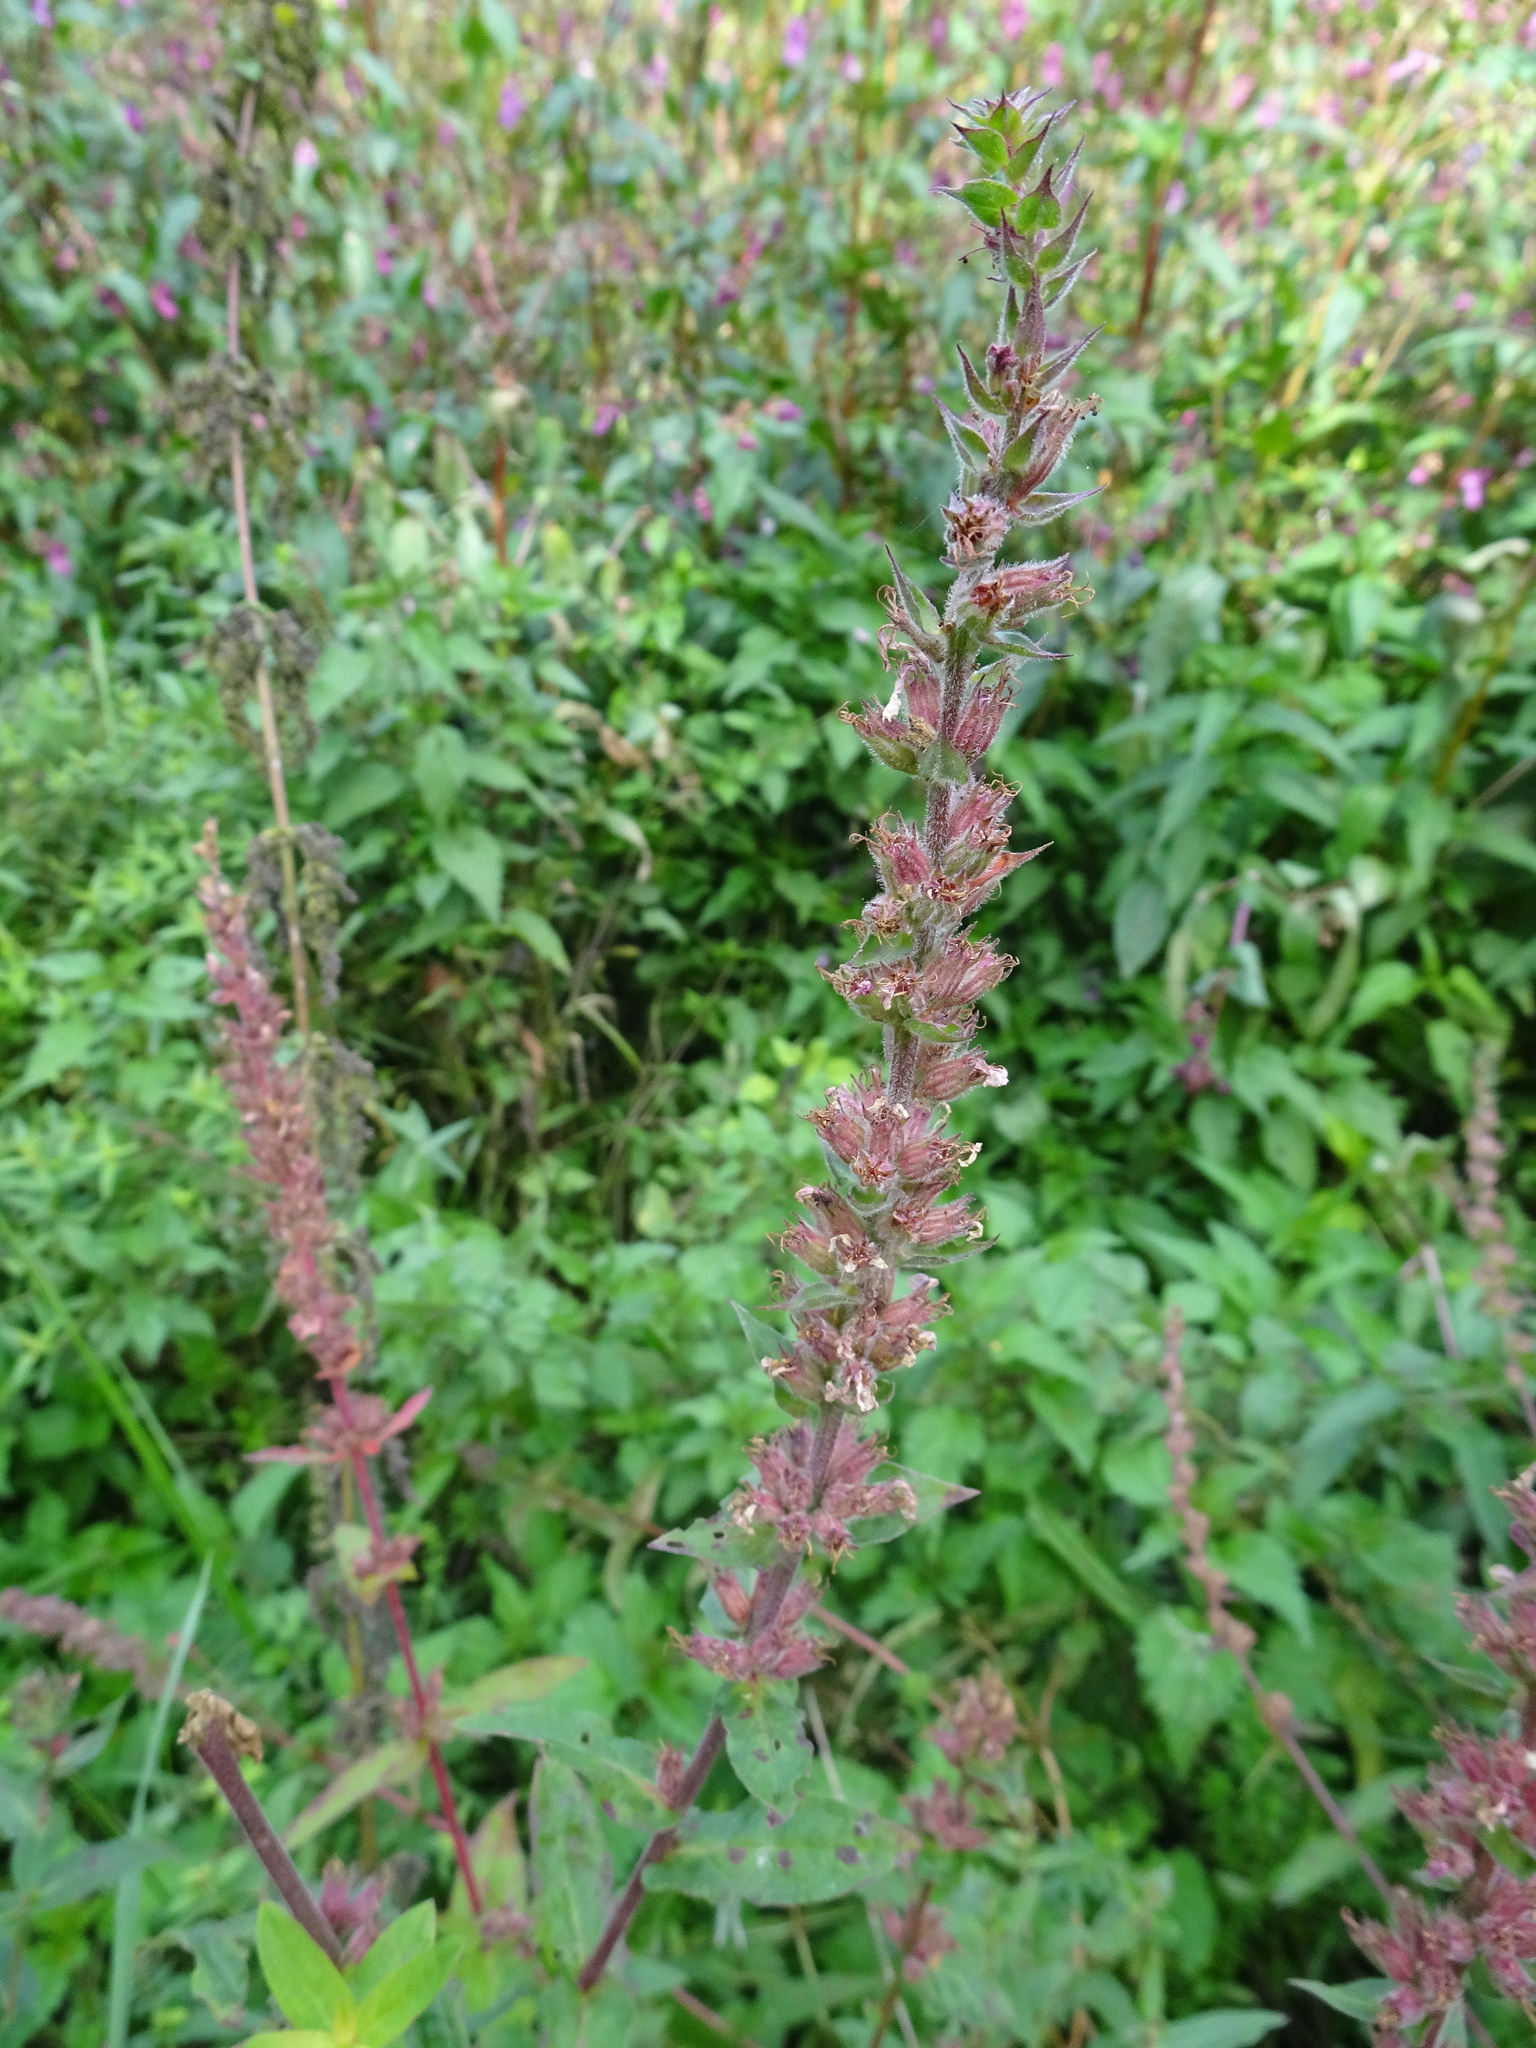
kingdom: Plantae
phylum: Tracheophyta
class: Magnoliopsida
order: Myrtales
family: Lythraceae
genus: Lythrum
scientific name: Lythrum salicaria
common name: Purple loosestrife
